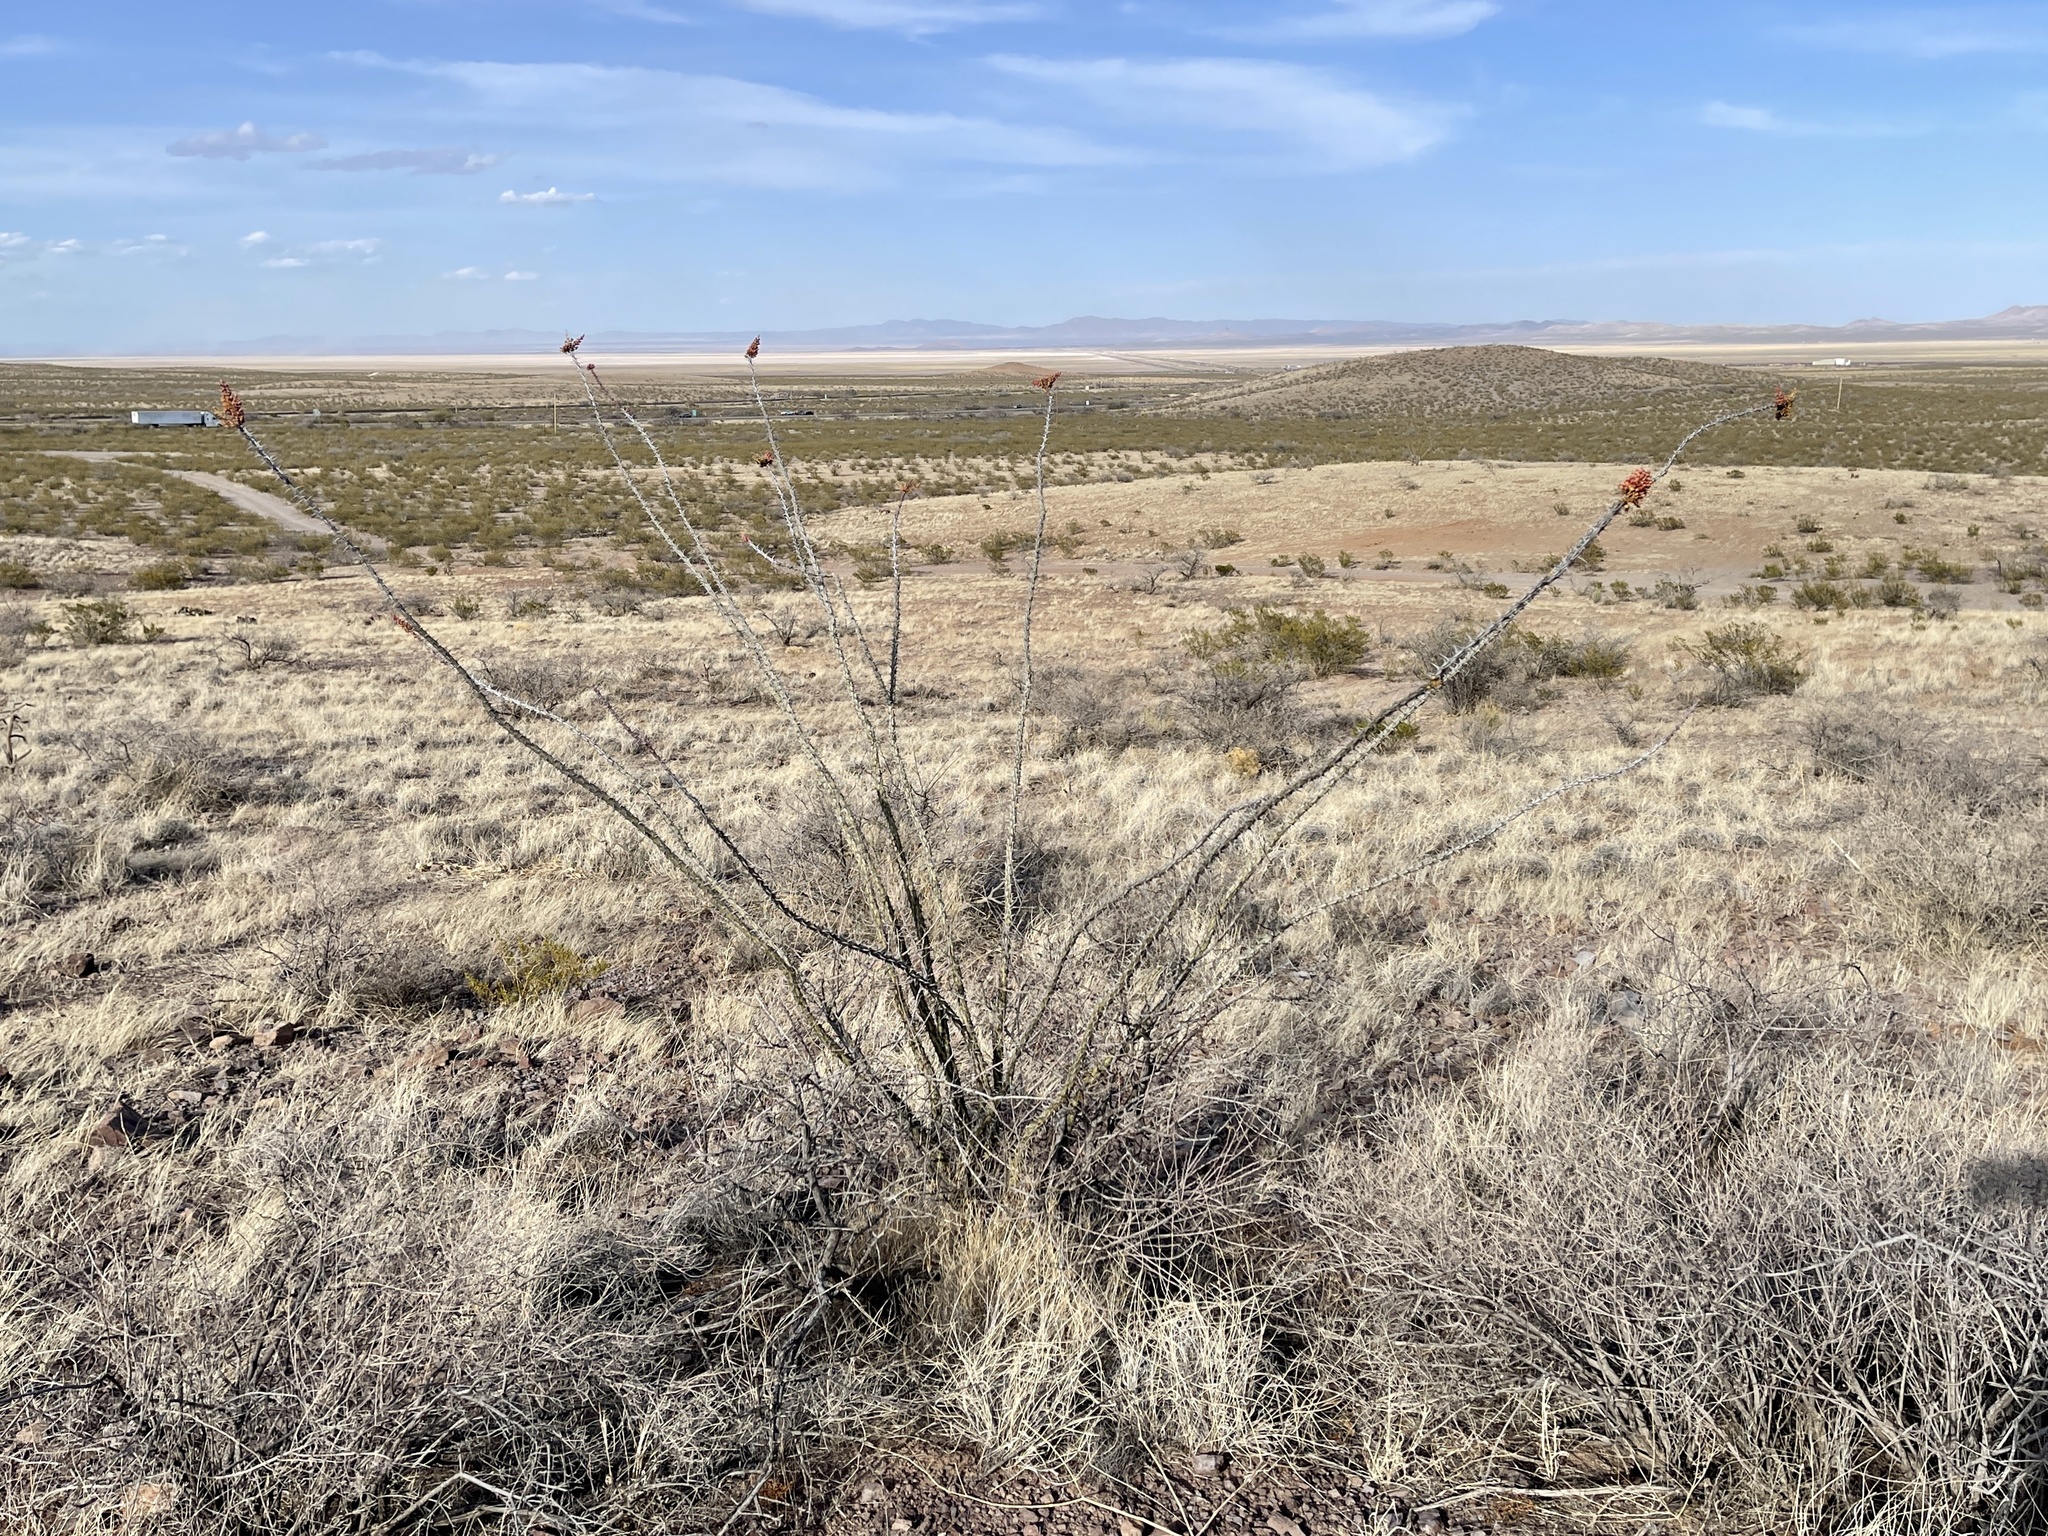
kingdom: Plantae
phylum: Tracheophyta
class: Magnoliopsida
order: Ericales
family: Fouquieriaceae
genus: Fouquieria
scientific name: Fouquieria splendens
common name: Vine-cactus
